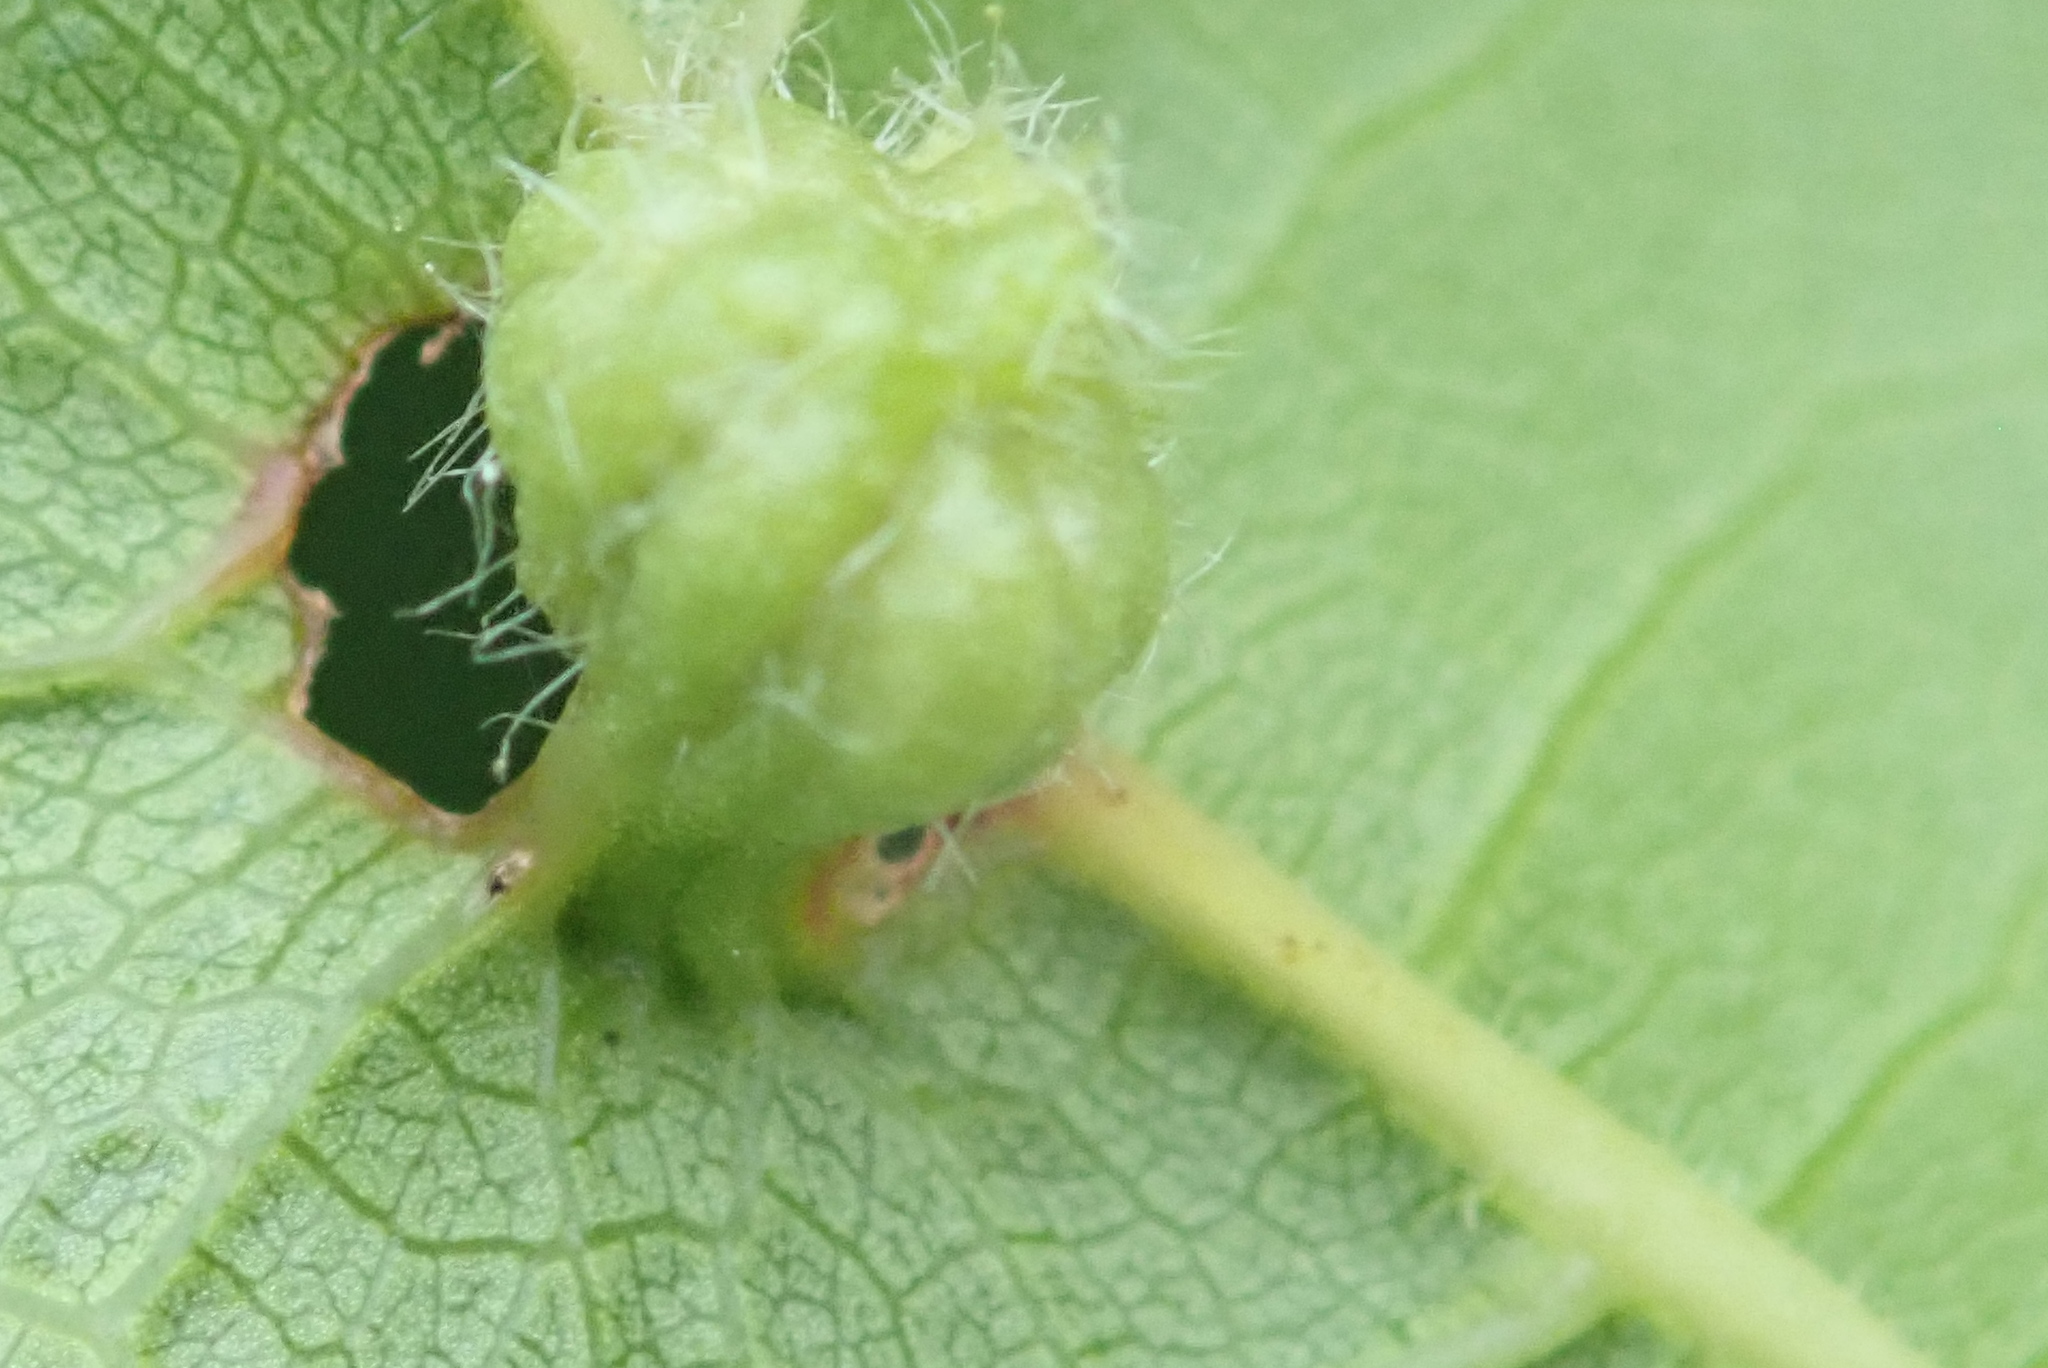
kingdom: Animalia
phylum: Arthropoda
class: Insecta
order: Hemiptera
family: Phylloxeridae
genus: Daktulosphaira
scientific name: Daktulosphaira vitifoliae
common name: Grape phylloxera
